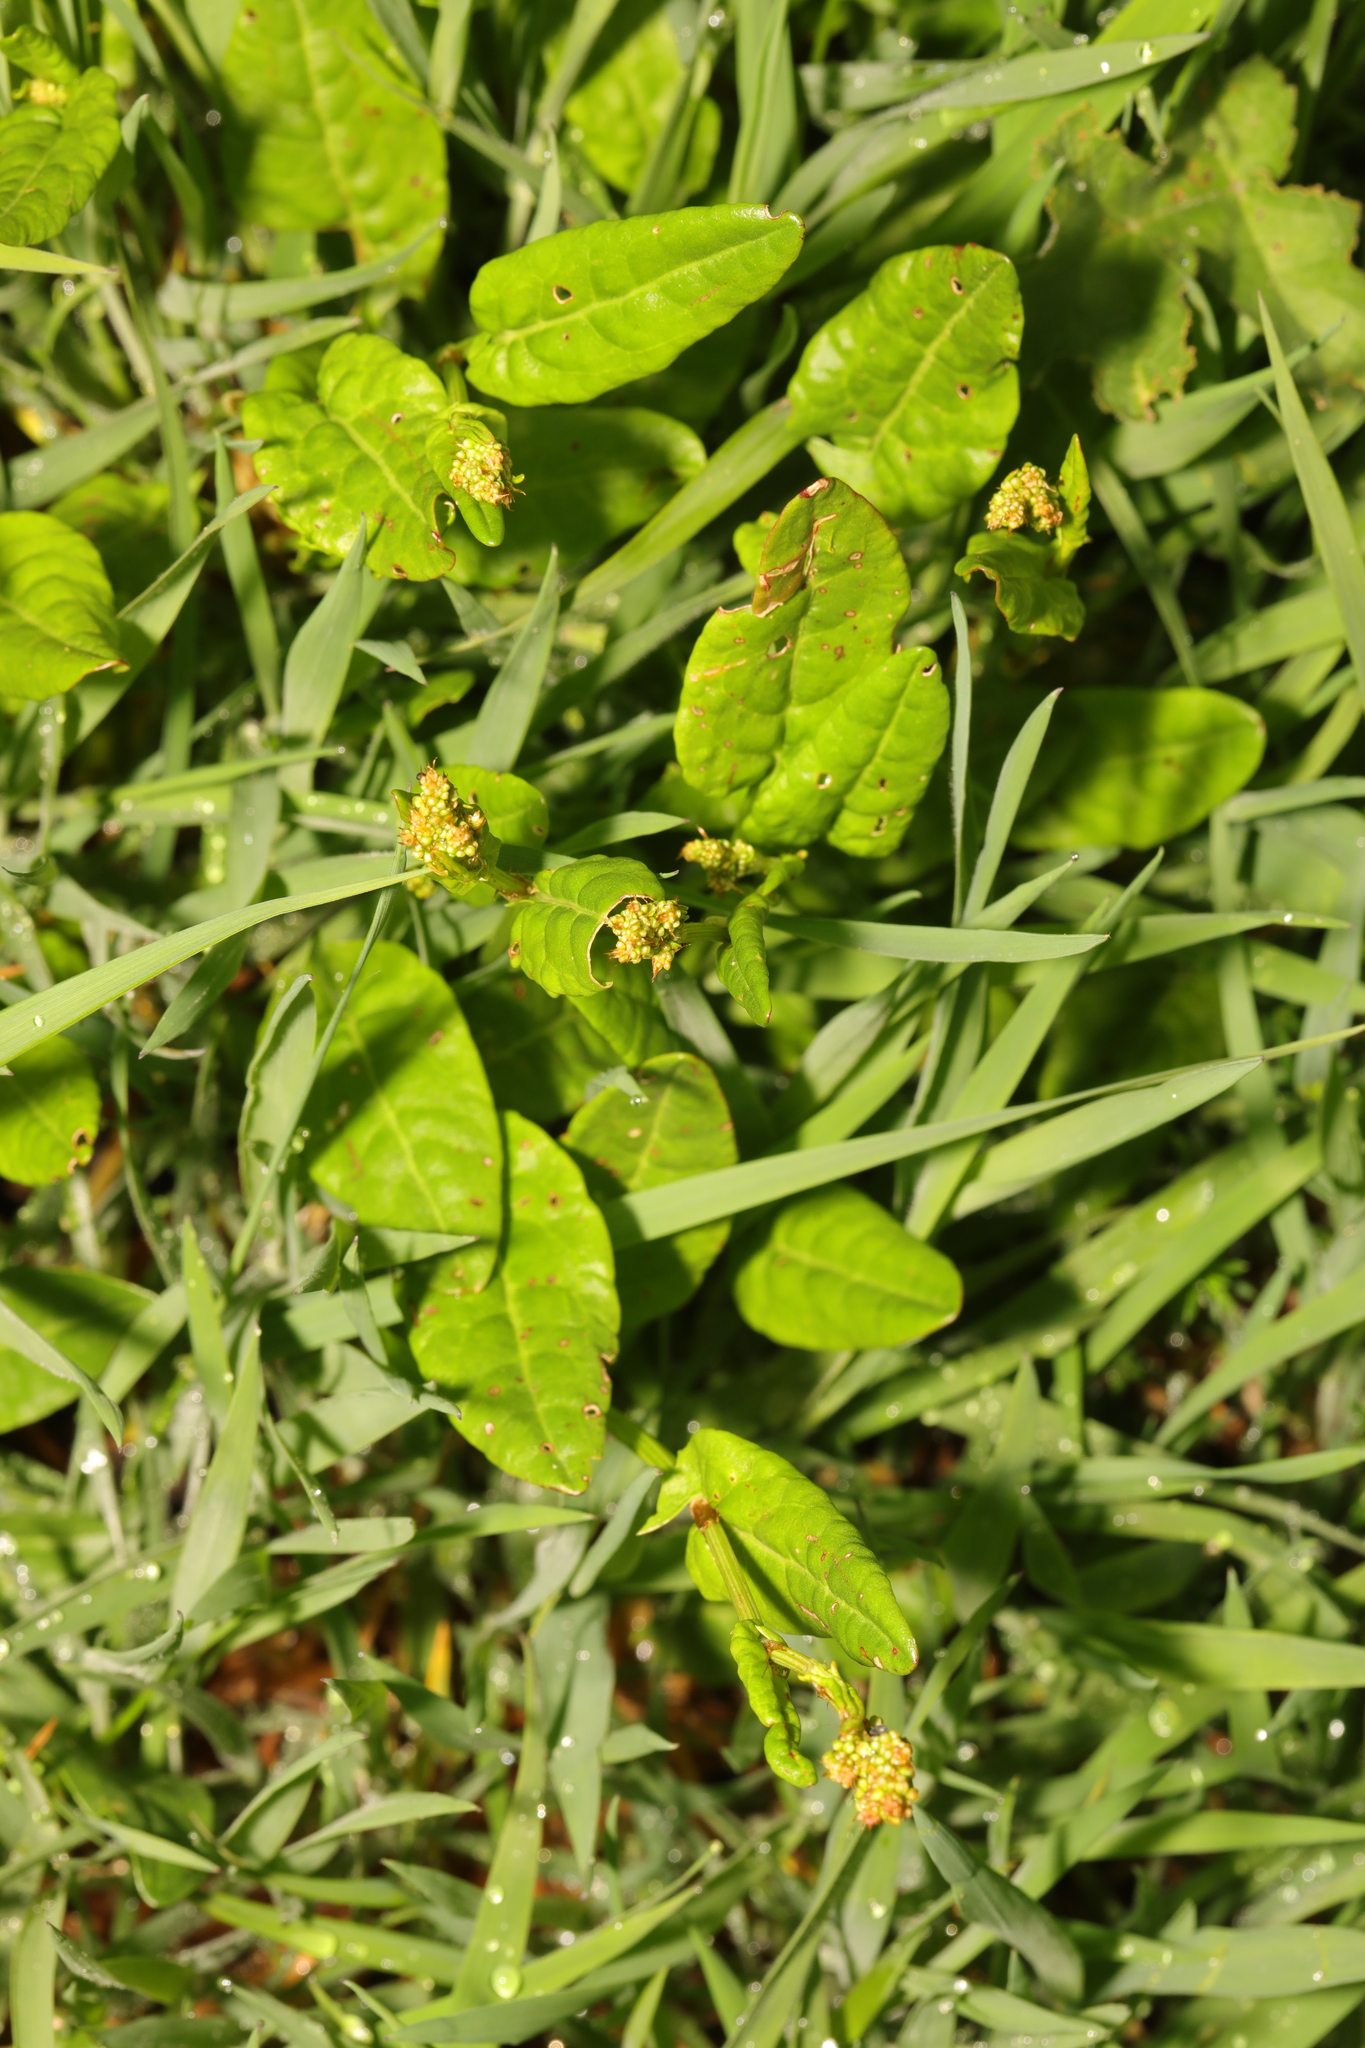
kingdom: Plantae
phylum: Tracheophyta
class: Magnoliopsida
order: Caryophyllales
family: Polygonaceae
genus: Rumex
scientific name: Rumex acetosa
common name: Garden sorrel
